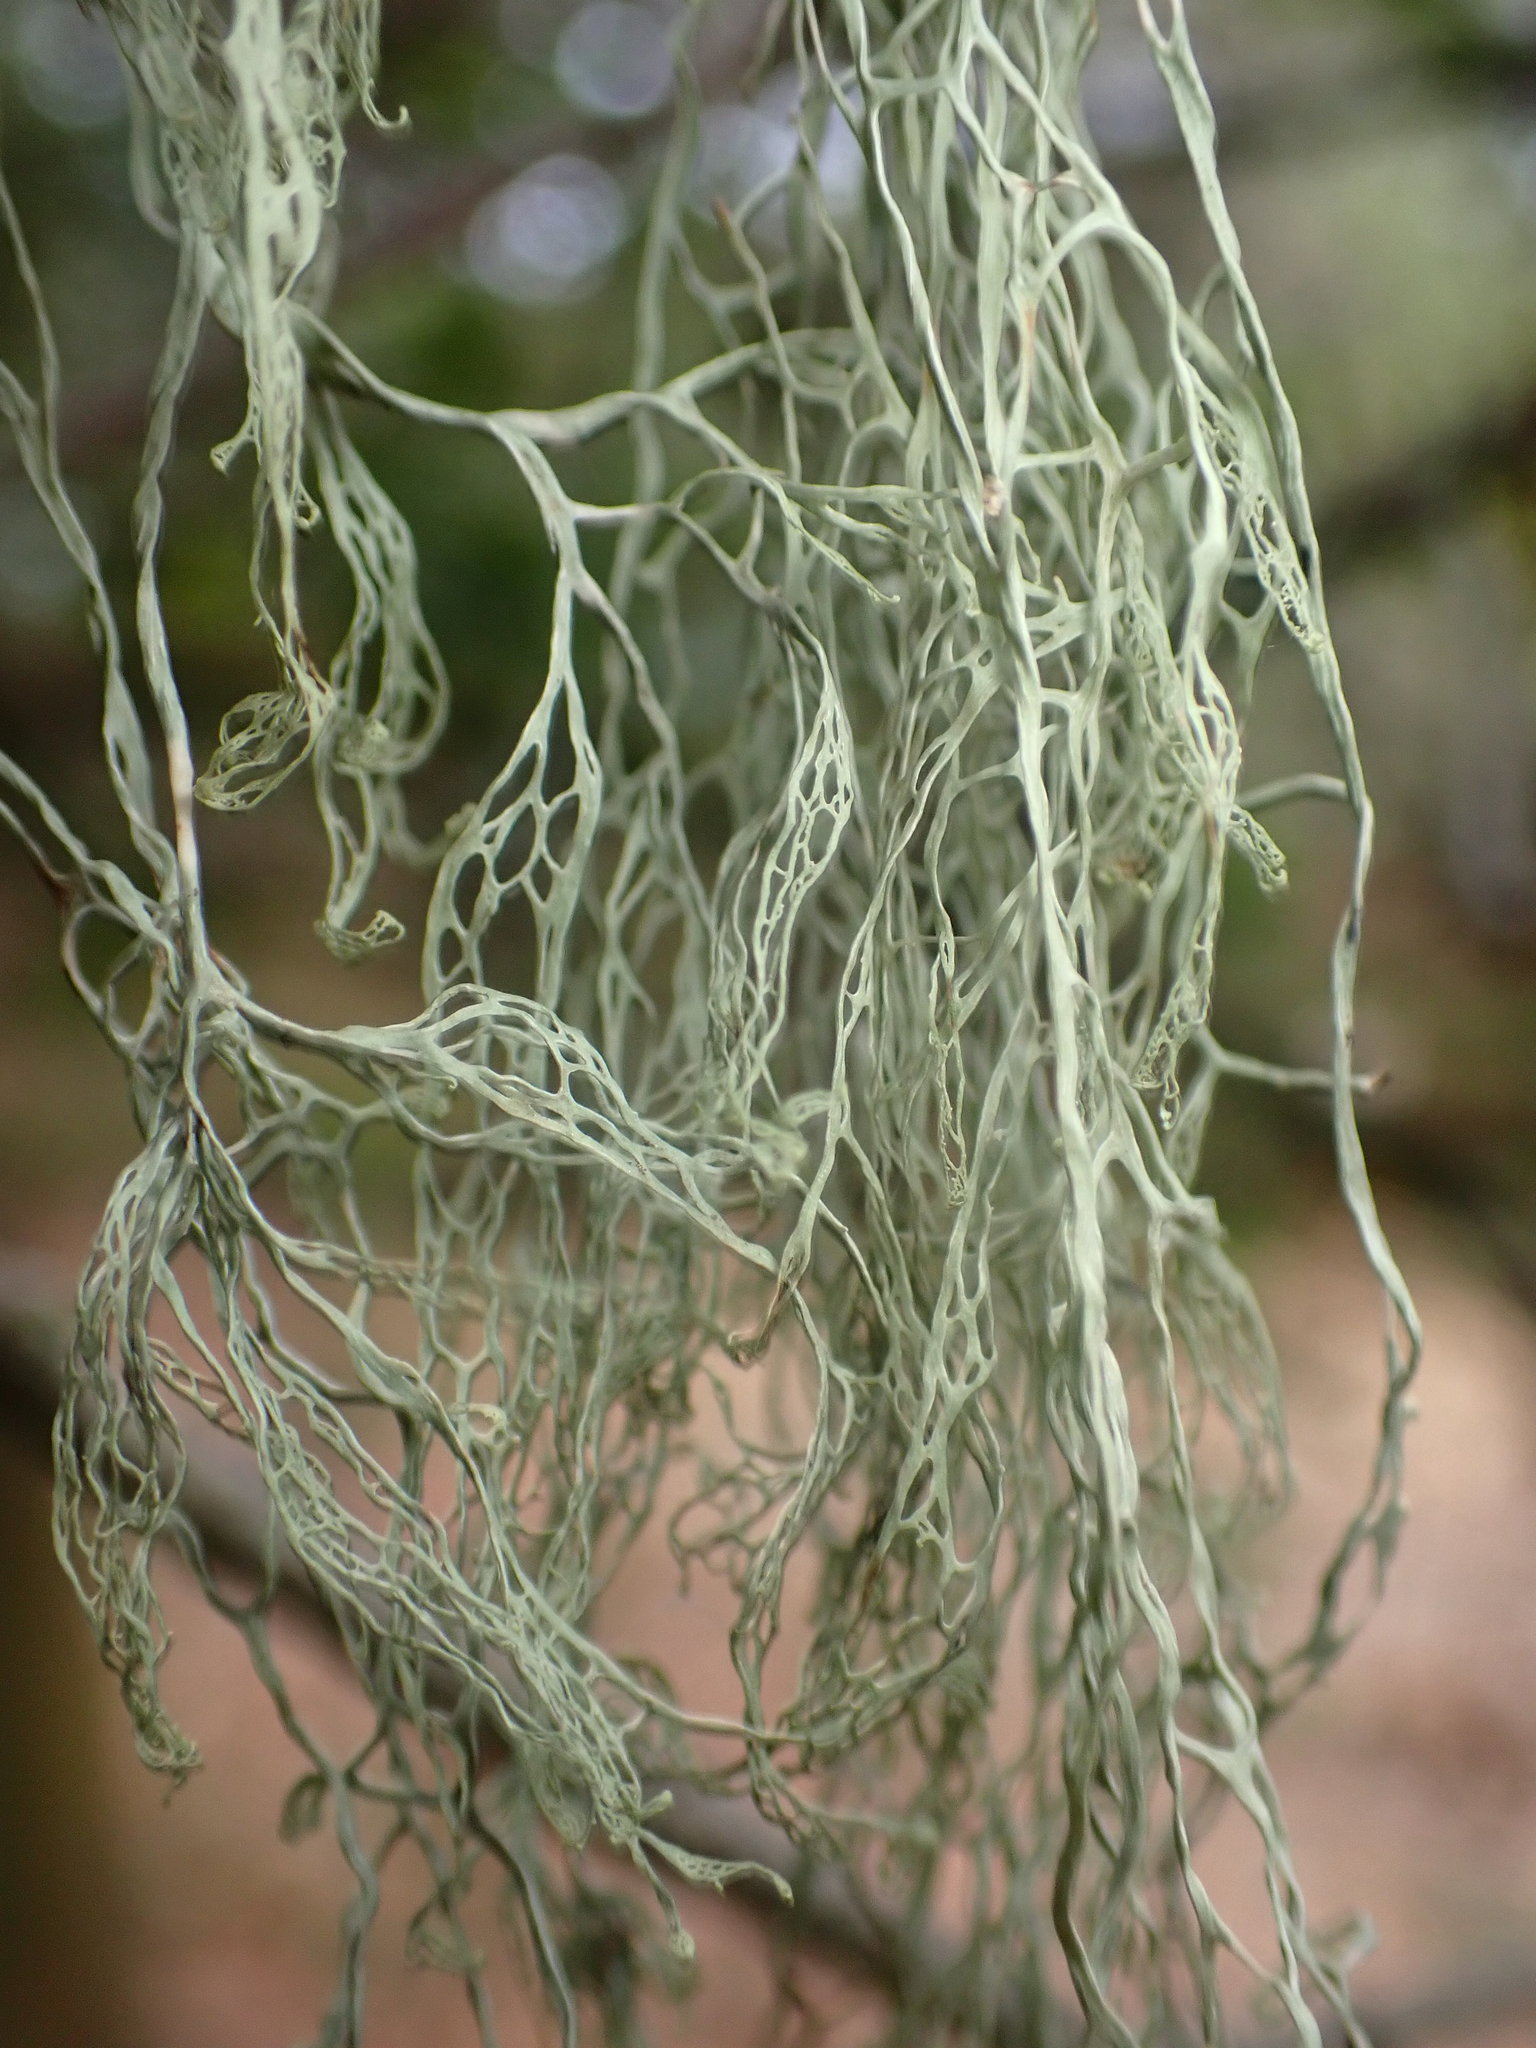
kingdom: Fungi
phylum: Ascomycota
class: Lecanoromycetes
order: Lecanorales
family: Ramalinaceae
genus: Ramalina
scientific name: Ramalina menziesii
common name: Lace lichen
